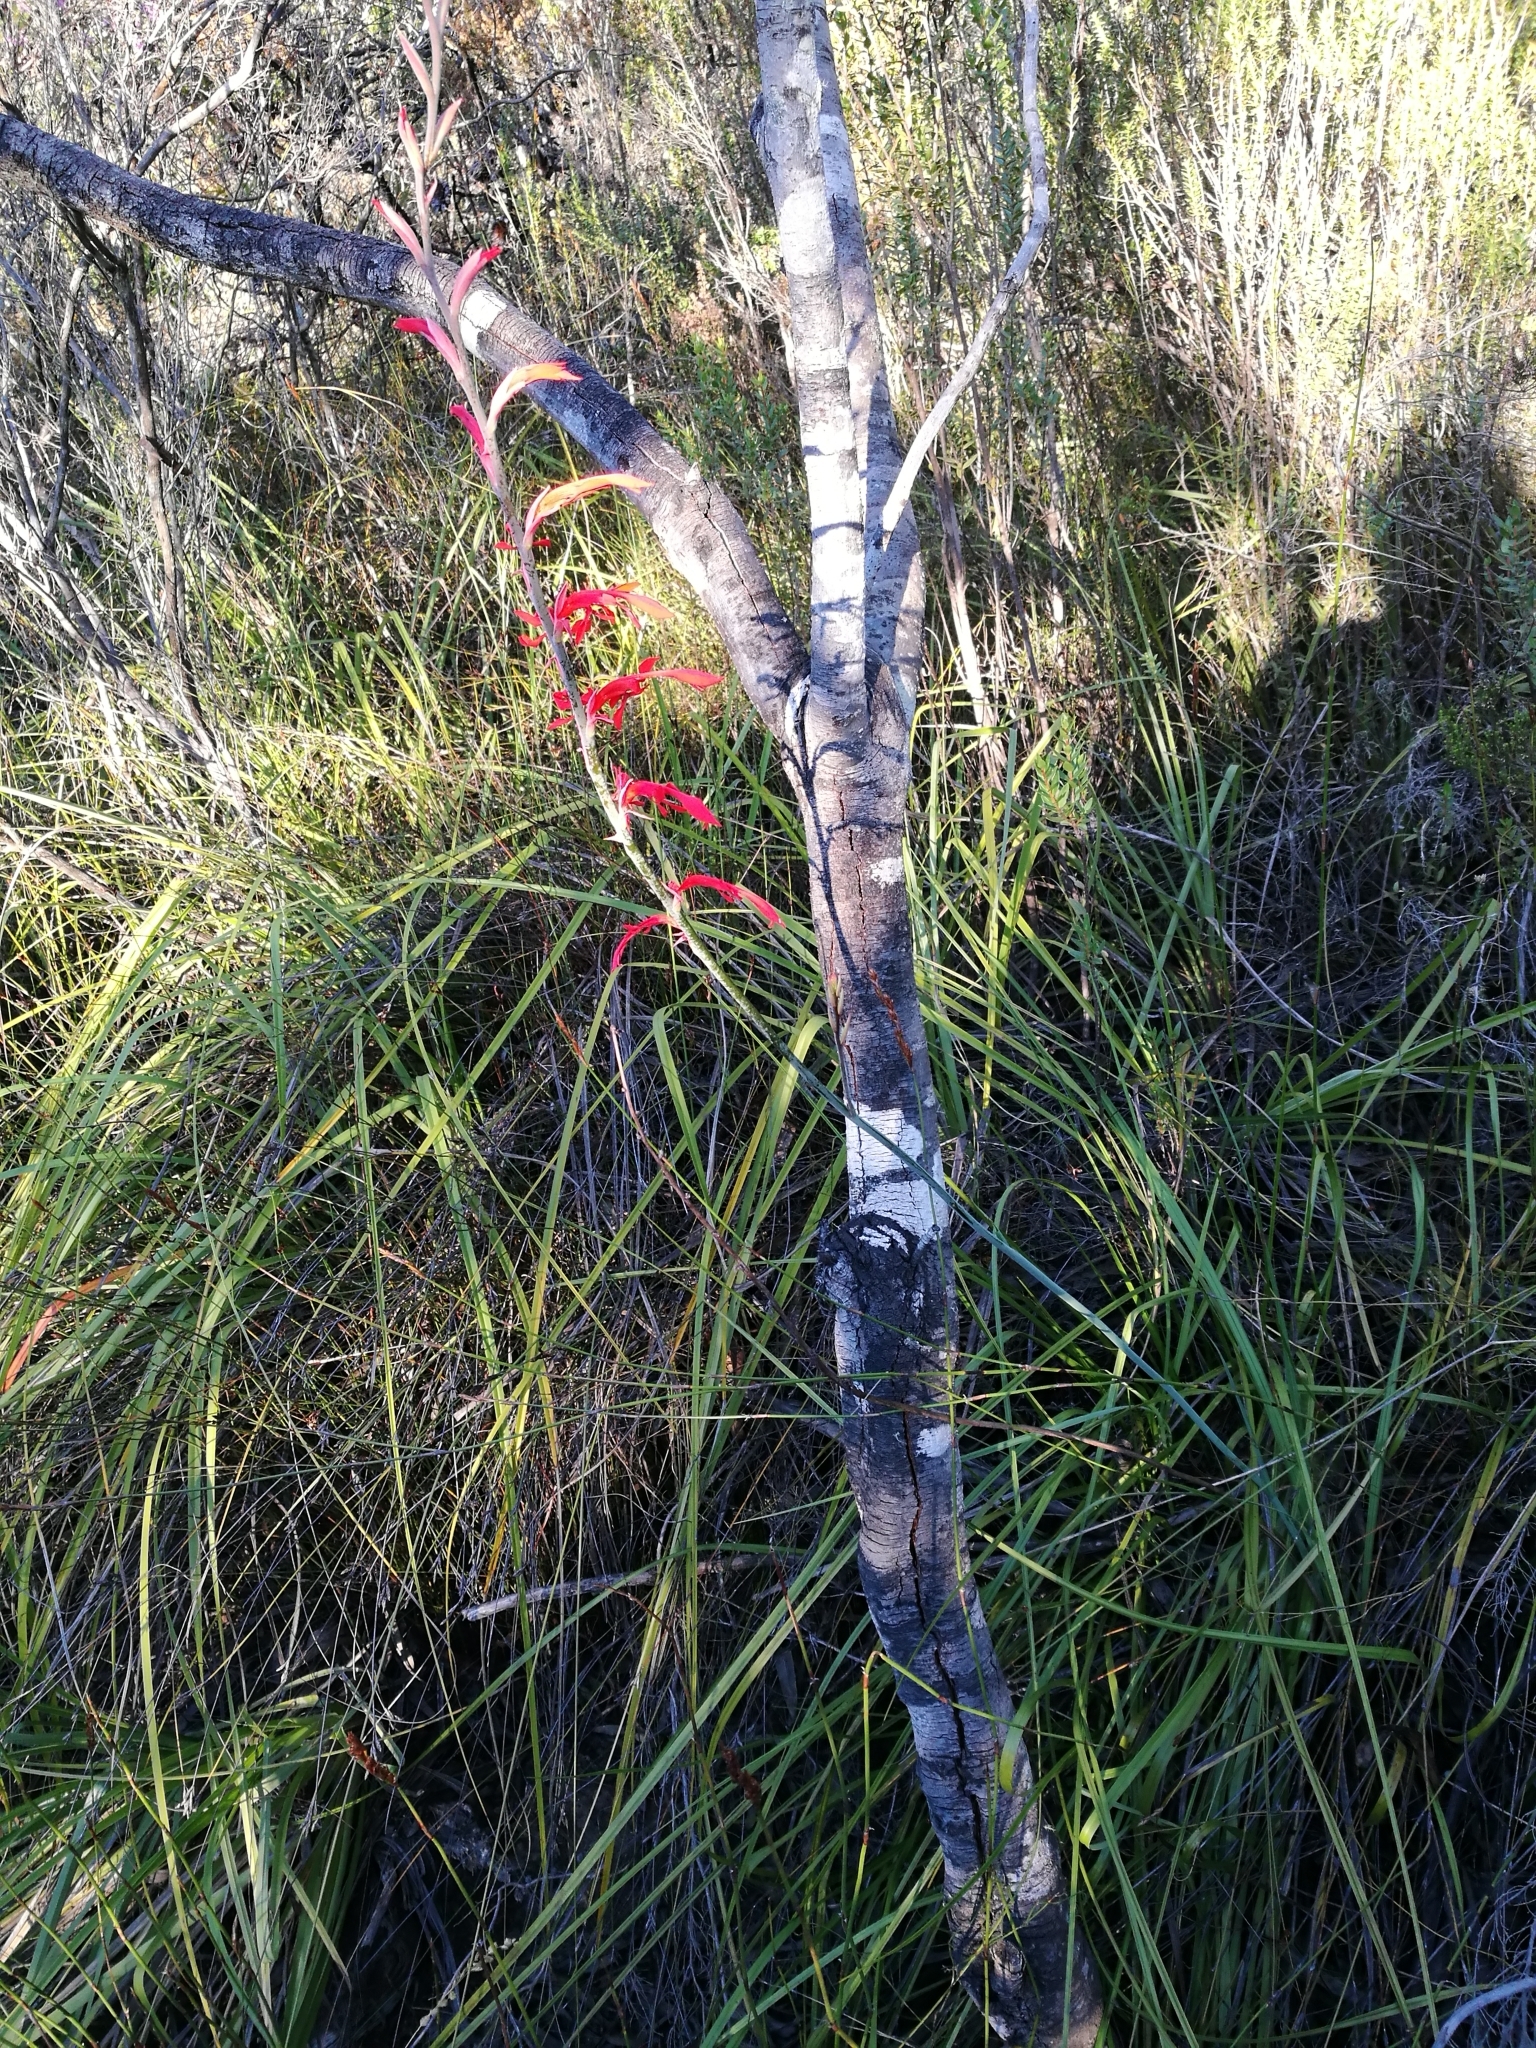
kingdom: Plantae
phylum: Tracheophyta
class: Liliopsida
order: Asparagales
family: Iridaceae
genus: Tritoniopsis
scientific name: Tritoniopsis caffra
